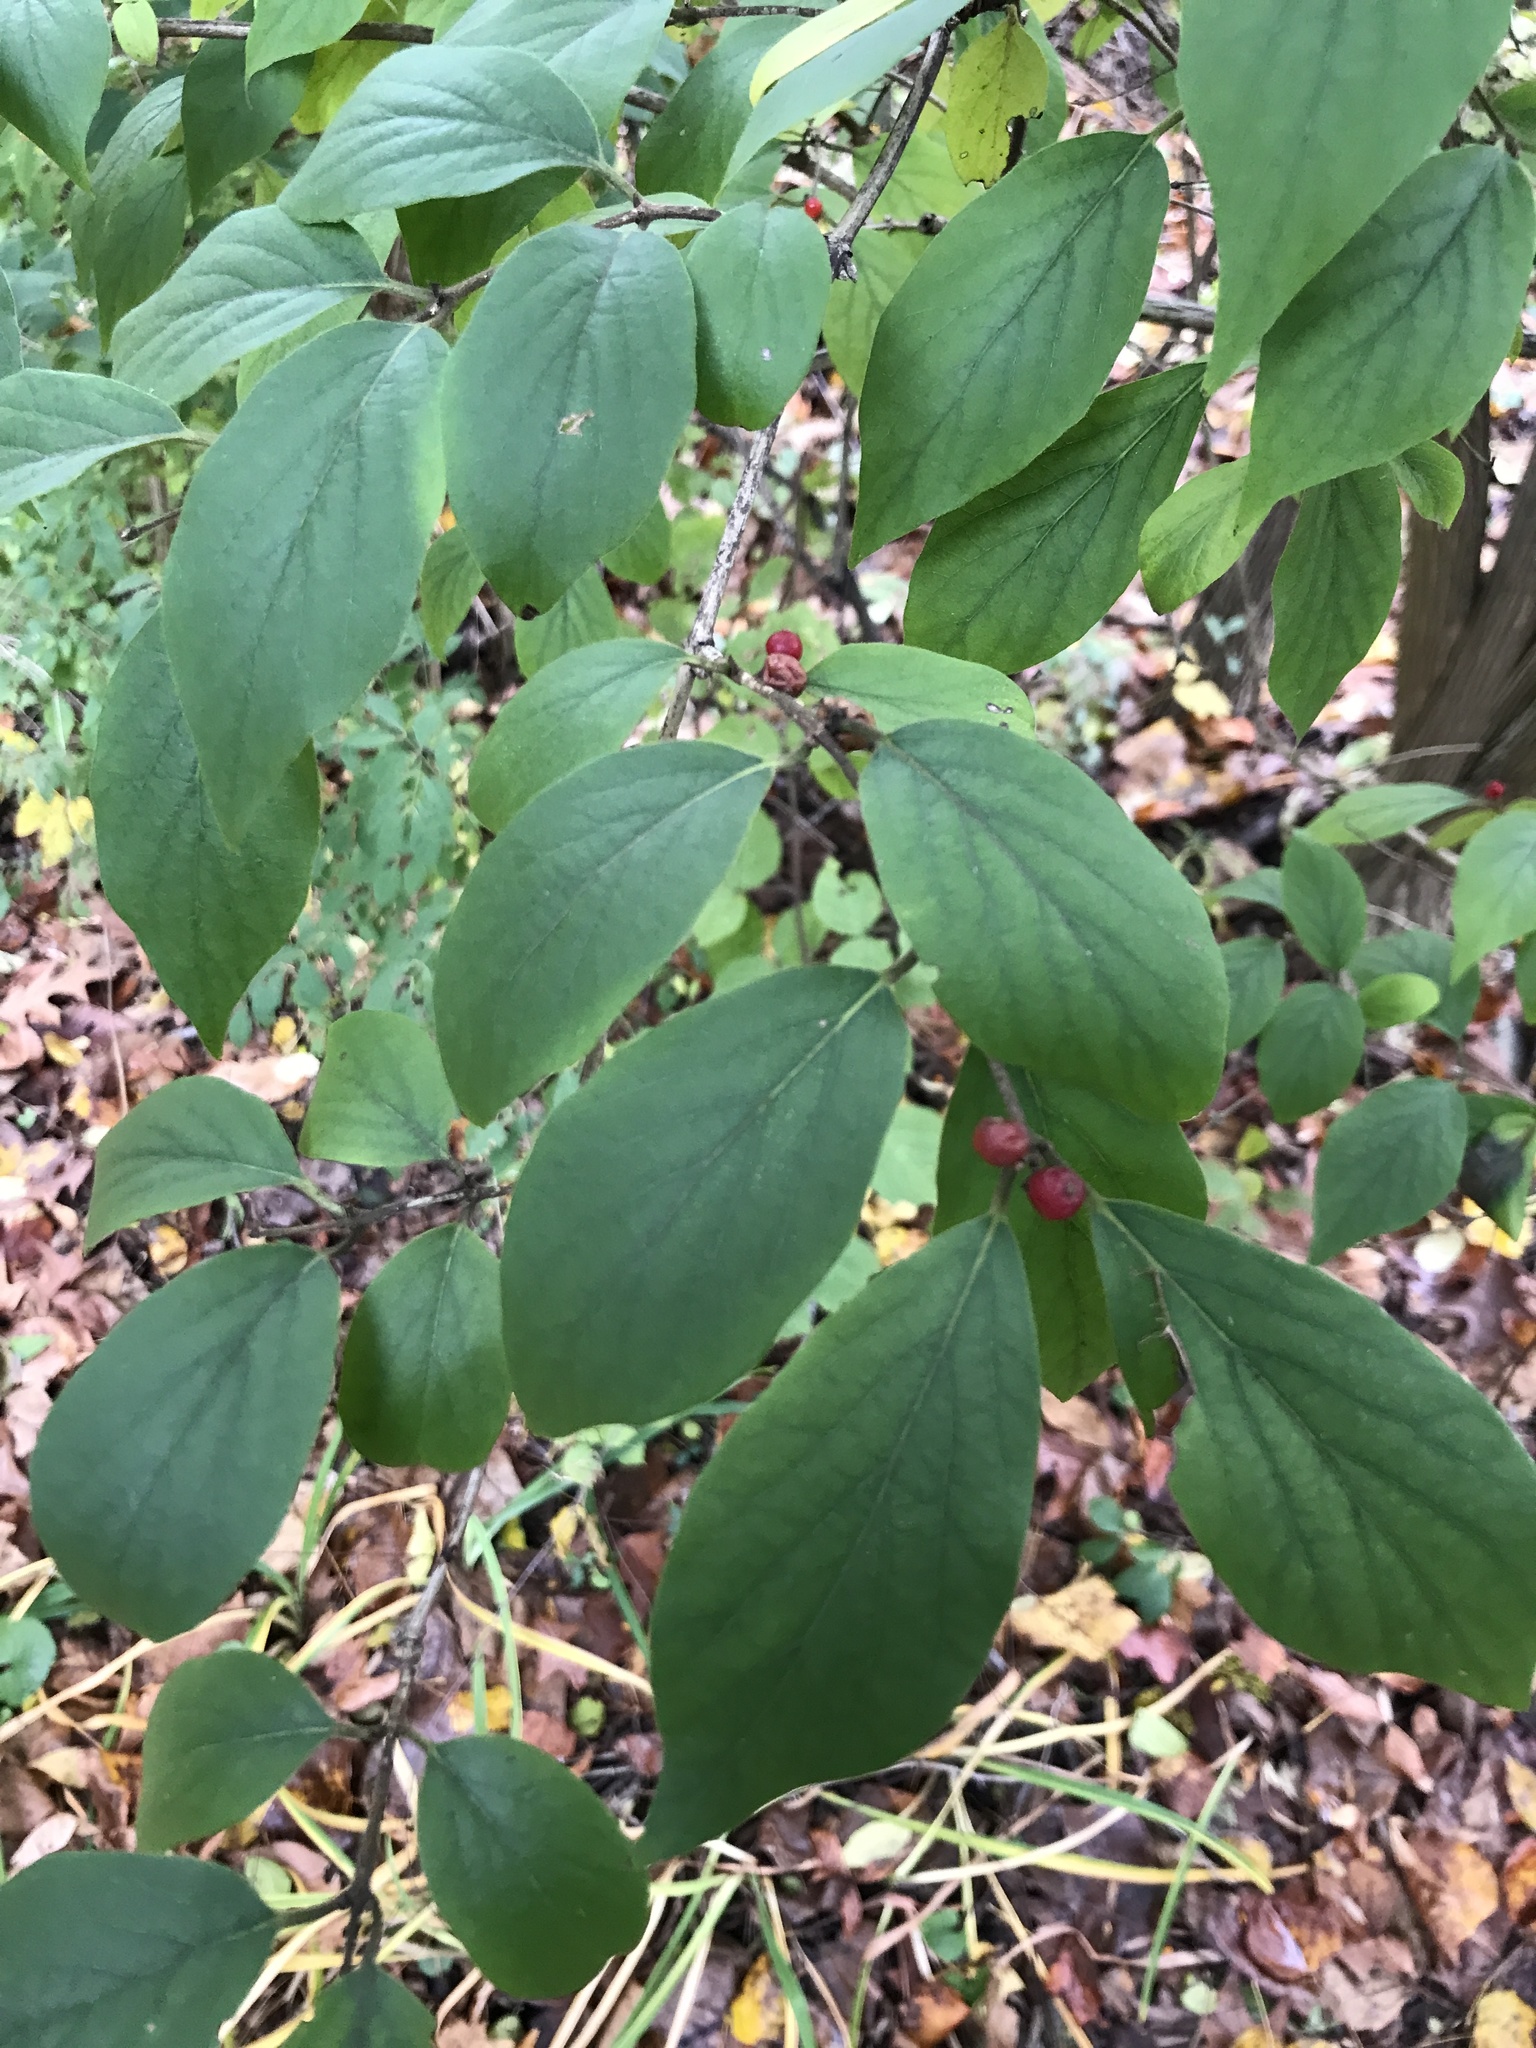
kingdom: Plantae
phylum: Tracheophyta
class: Magnoliopsida
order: Dipsacales
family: Caprifoliaceae
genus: Lonicera
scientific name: Lonicera maackii
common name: Amur honeysuckle
